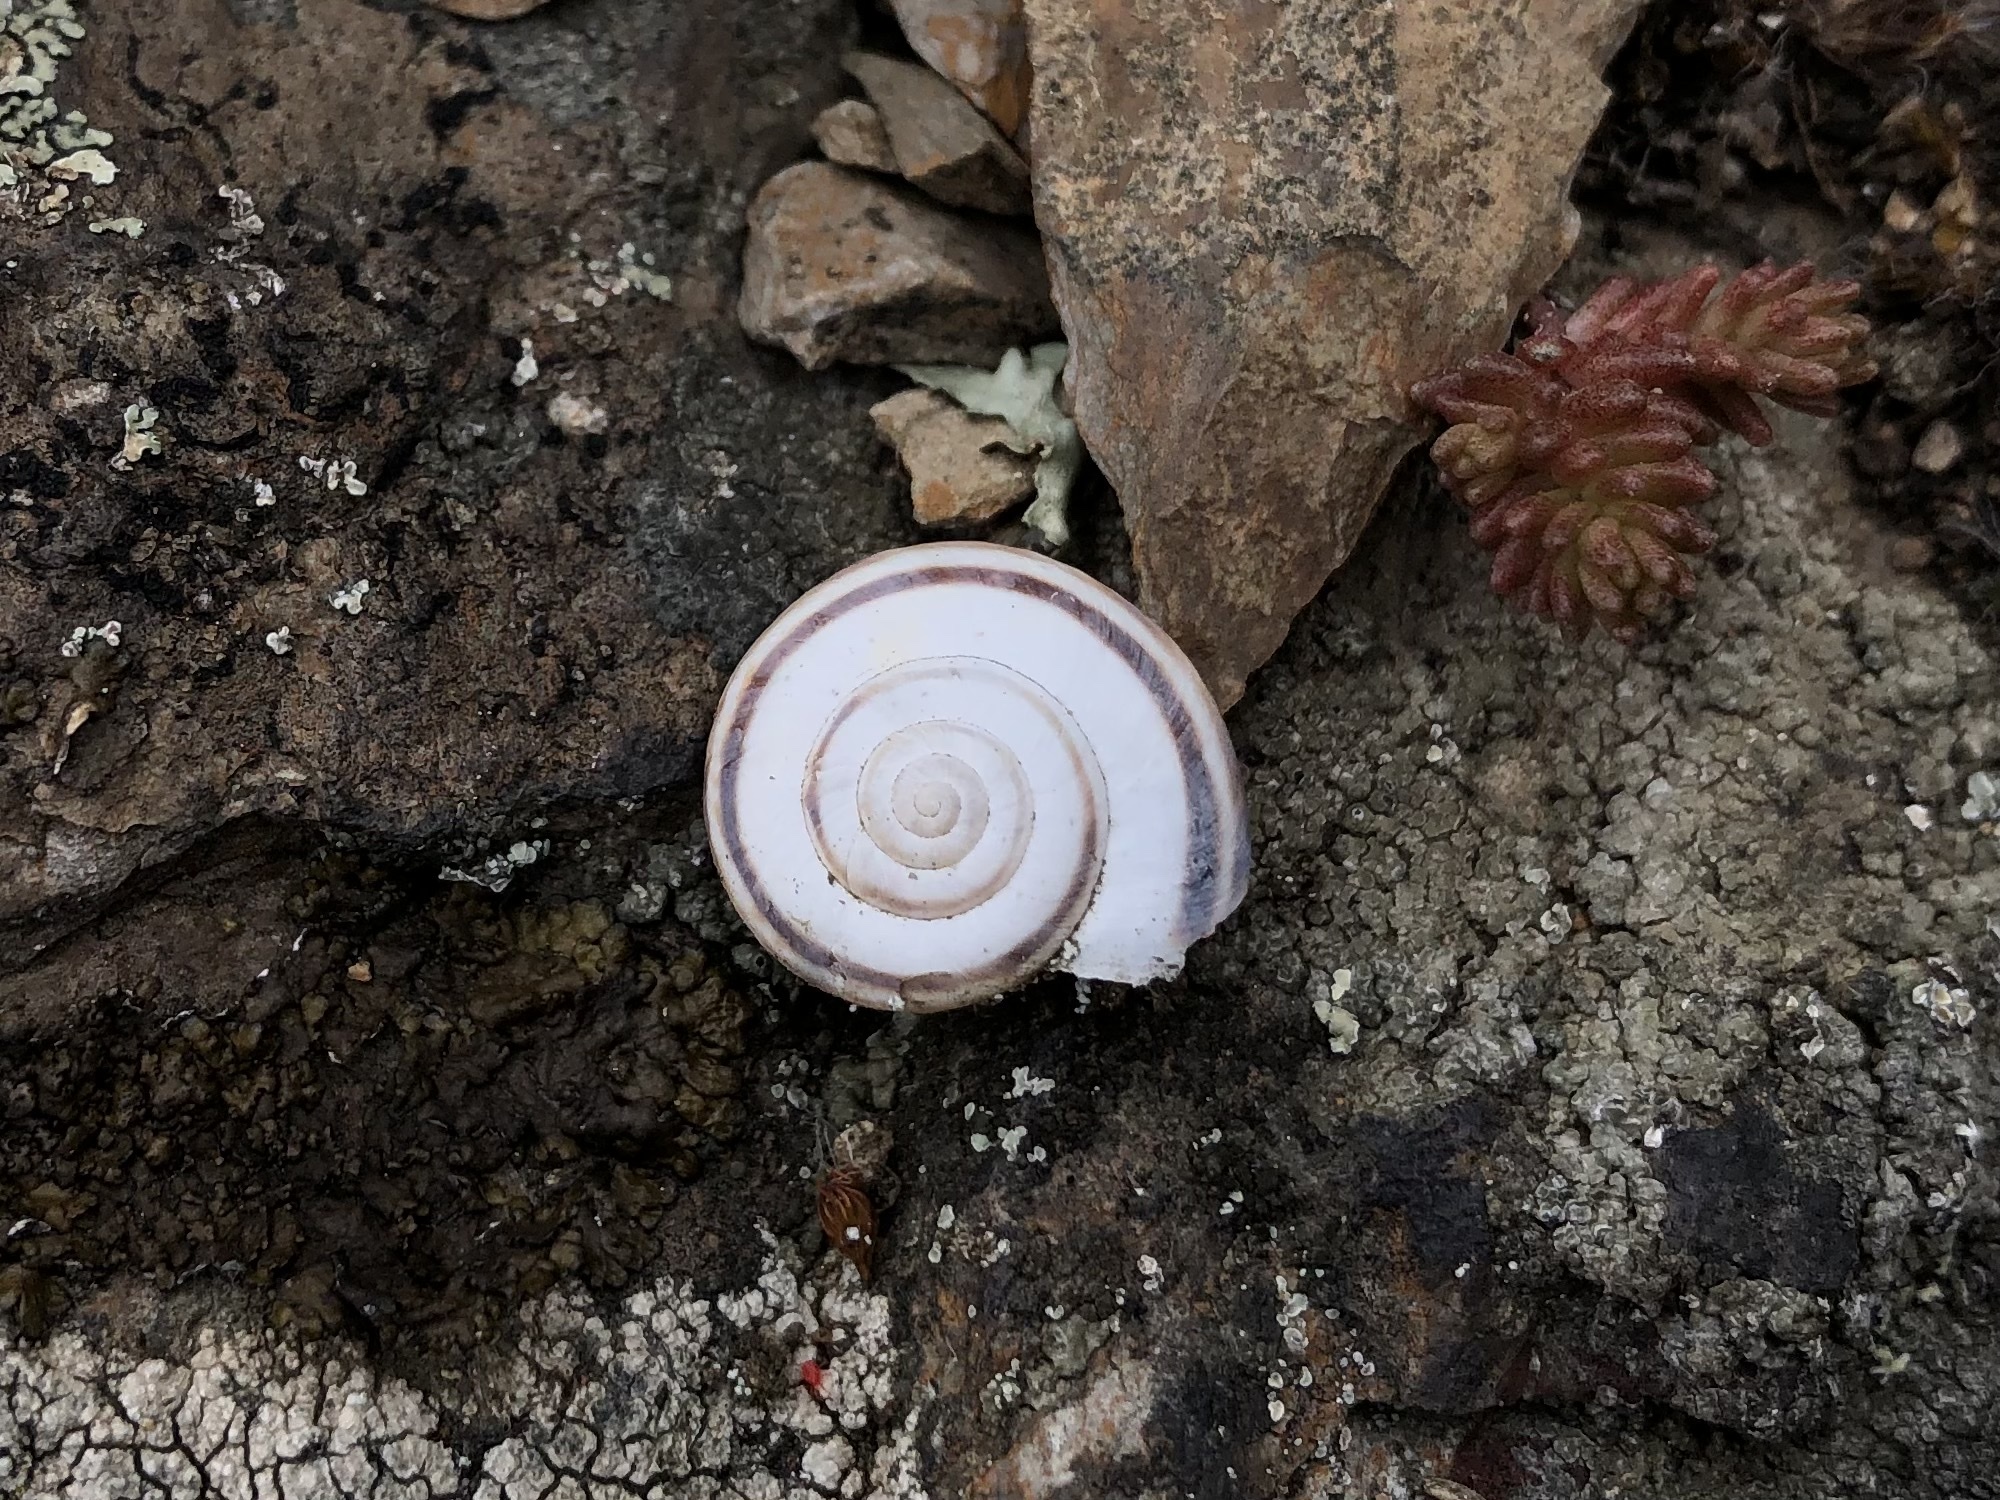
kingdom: Animalia
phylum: Mollusca
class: Gastropoda
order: Stylommatophora
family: Geomitridae
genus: Xerolenta
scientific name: Xerolenta obvia
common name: White heath snail
